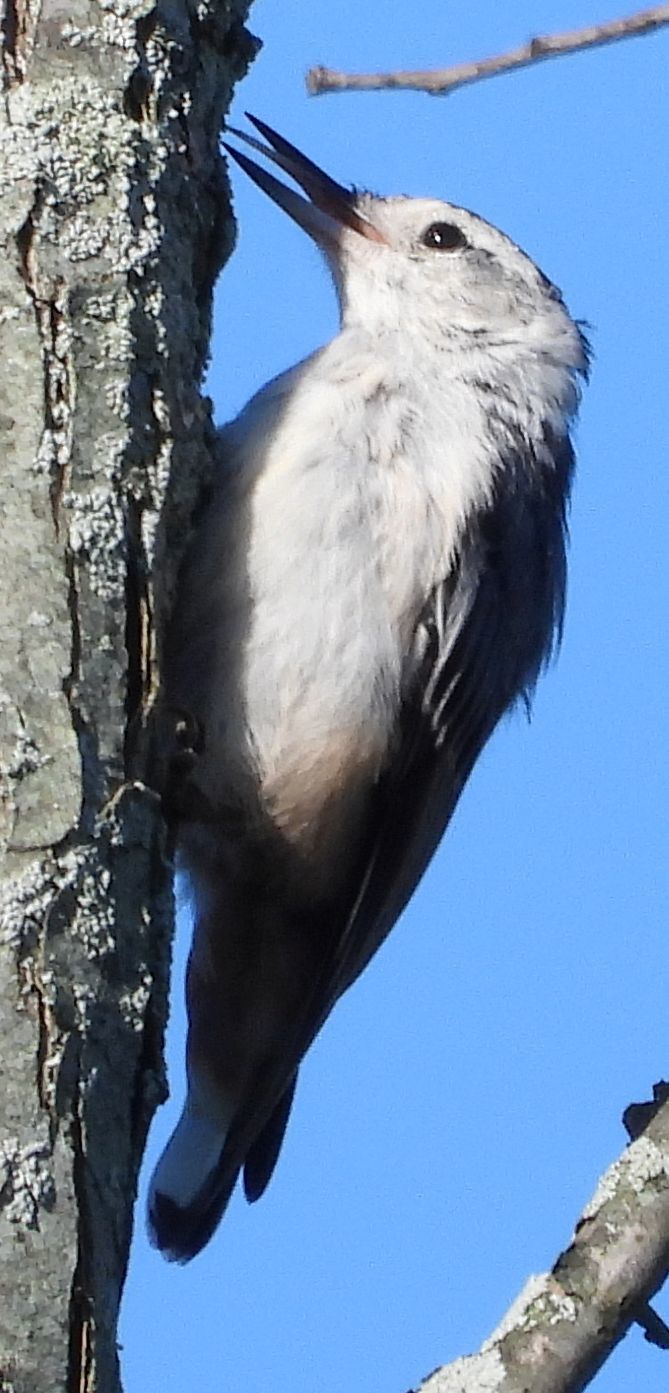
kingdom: Animalia
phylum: Chordata
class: Aves
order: Passeriformes
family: Sittidae
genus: Sitta
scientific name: Sitta carolinensis
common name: White-breasted nuthatch
